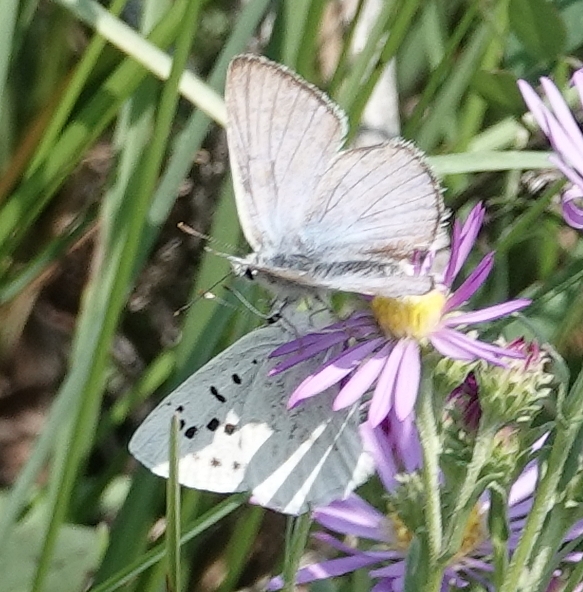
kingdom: Animalia
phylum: Arthropoda
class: Insecta
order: Lepidoptera
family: Lycaenidae
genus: Tharsalea
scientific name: Tharsalea heteronea
